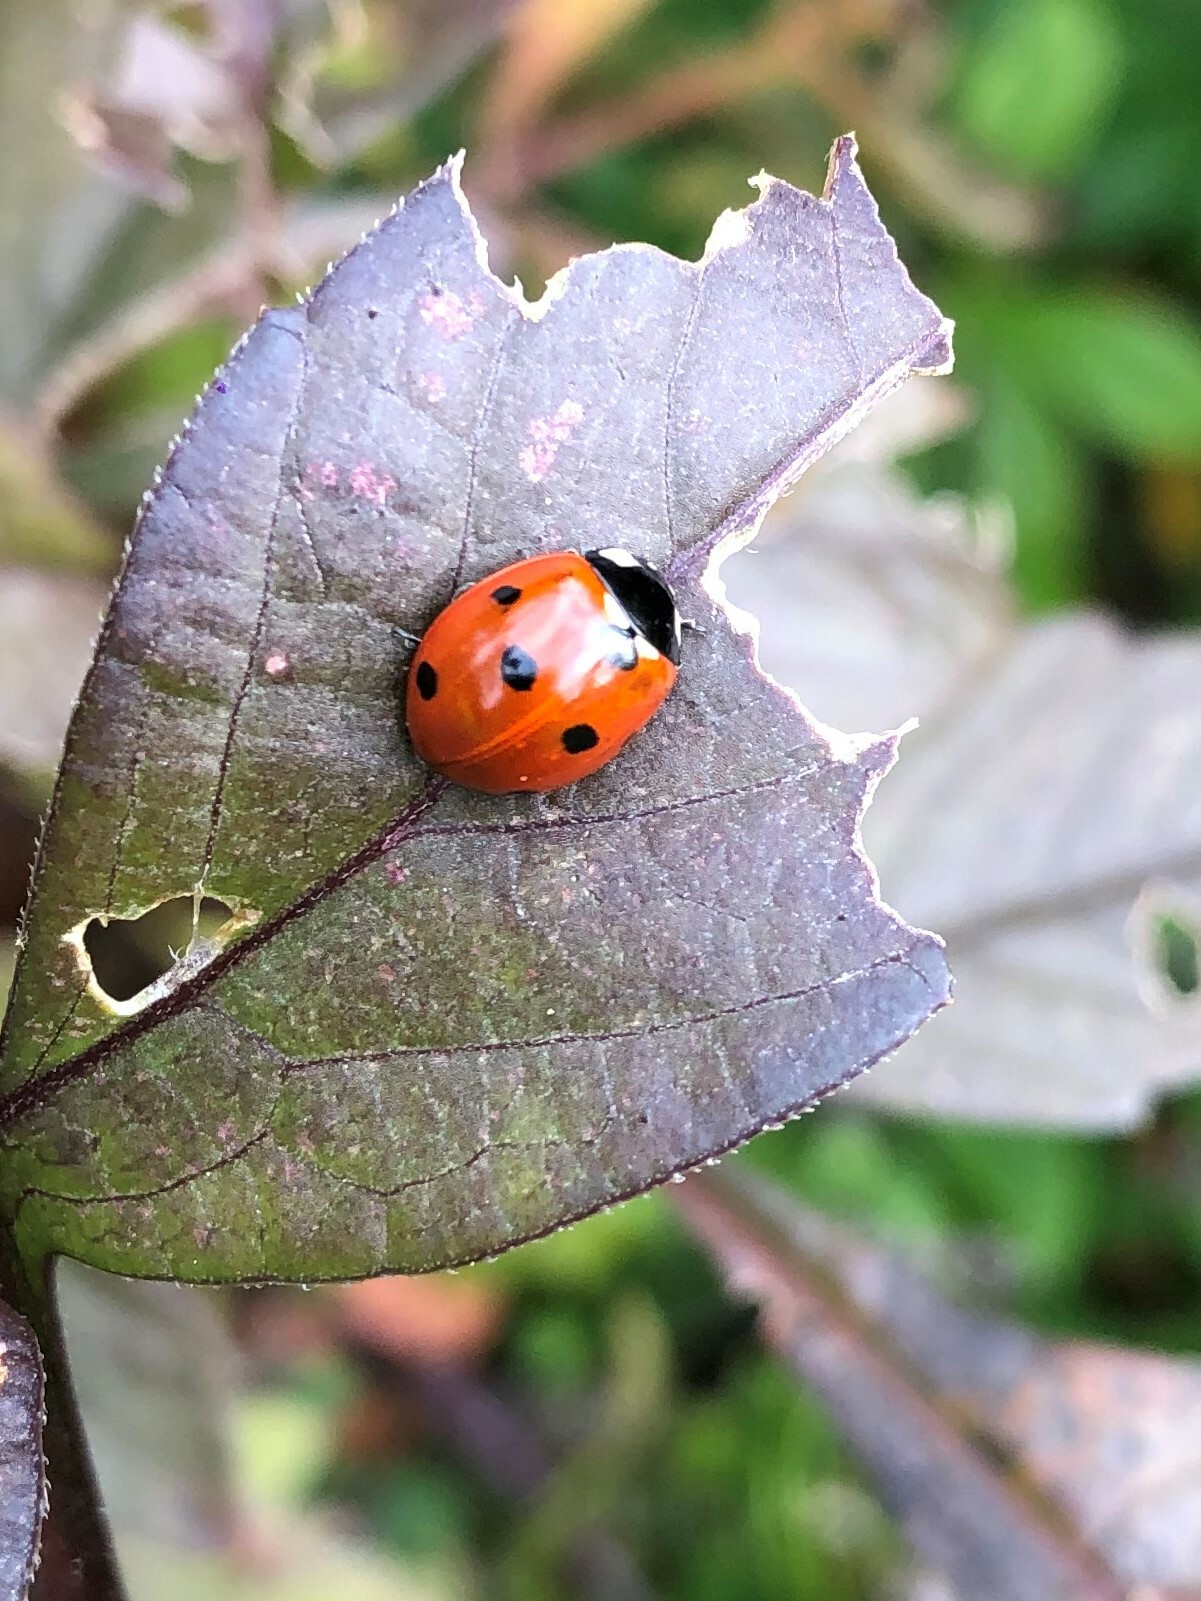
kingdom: Animalia
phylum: Arthropoda
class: Insecta
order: Coleoptera
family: Coccinellidae
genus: Coccinella
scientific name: Coccinella septempunctata
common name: Sevenspotted lady beetle
